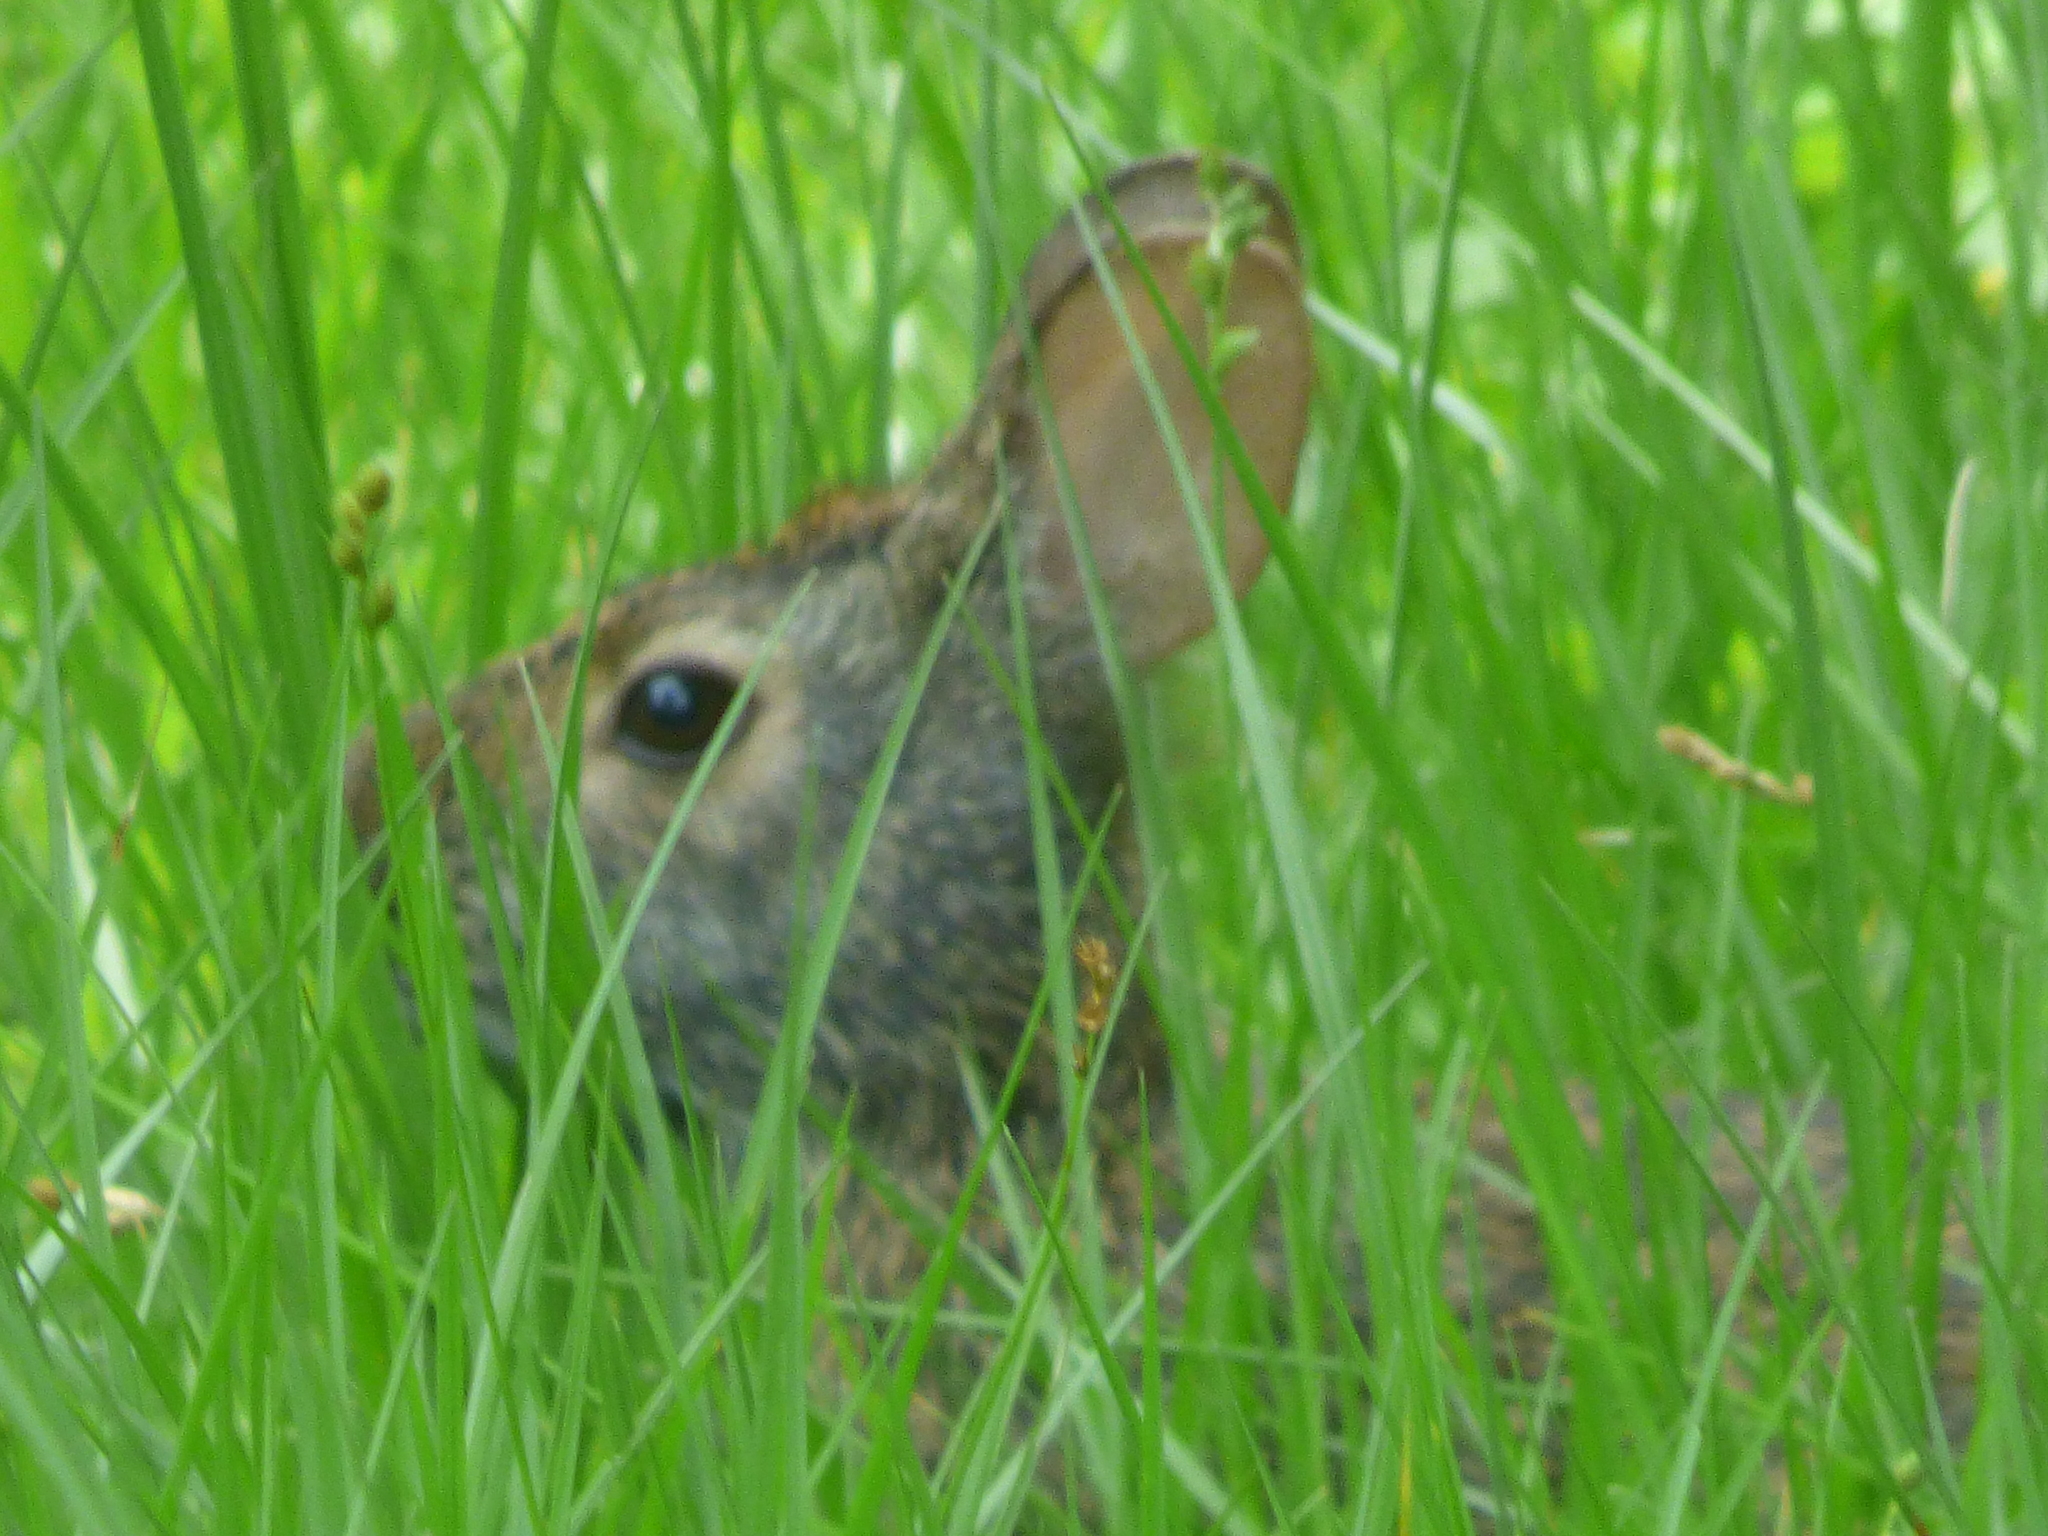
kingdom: Animalia
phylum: Chordata
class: Mammalia
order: Lagomorpha
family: Leporidae
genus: Sylvilagus
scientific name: Sylvilagus palustris
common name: Marsh rabbit
